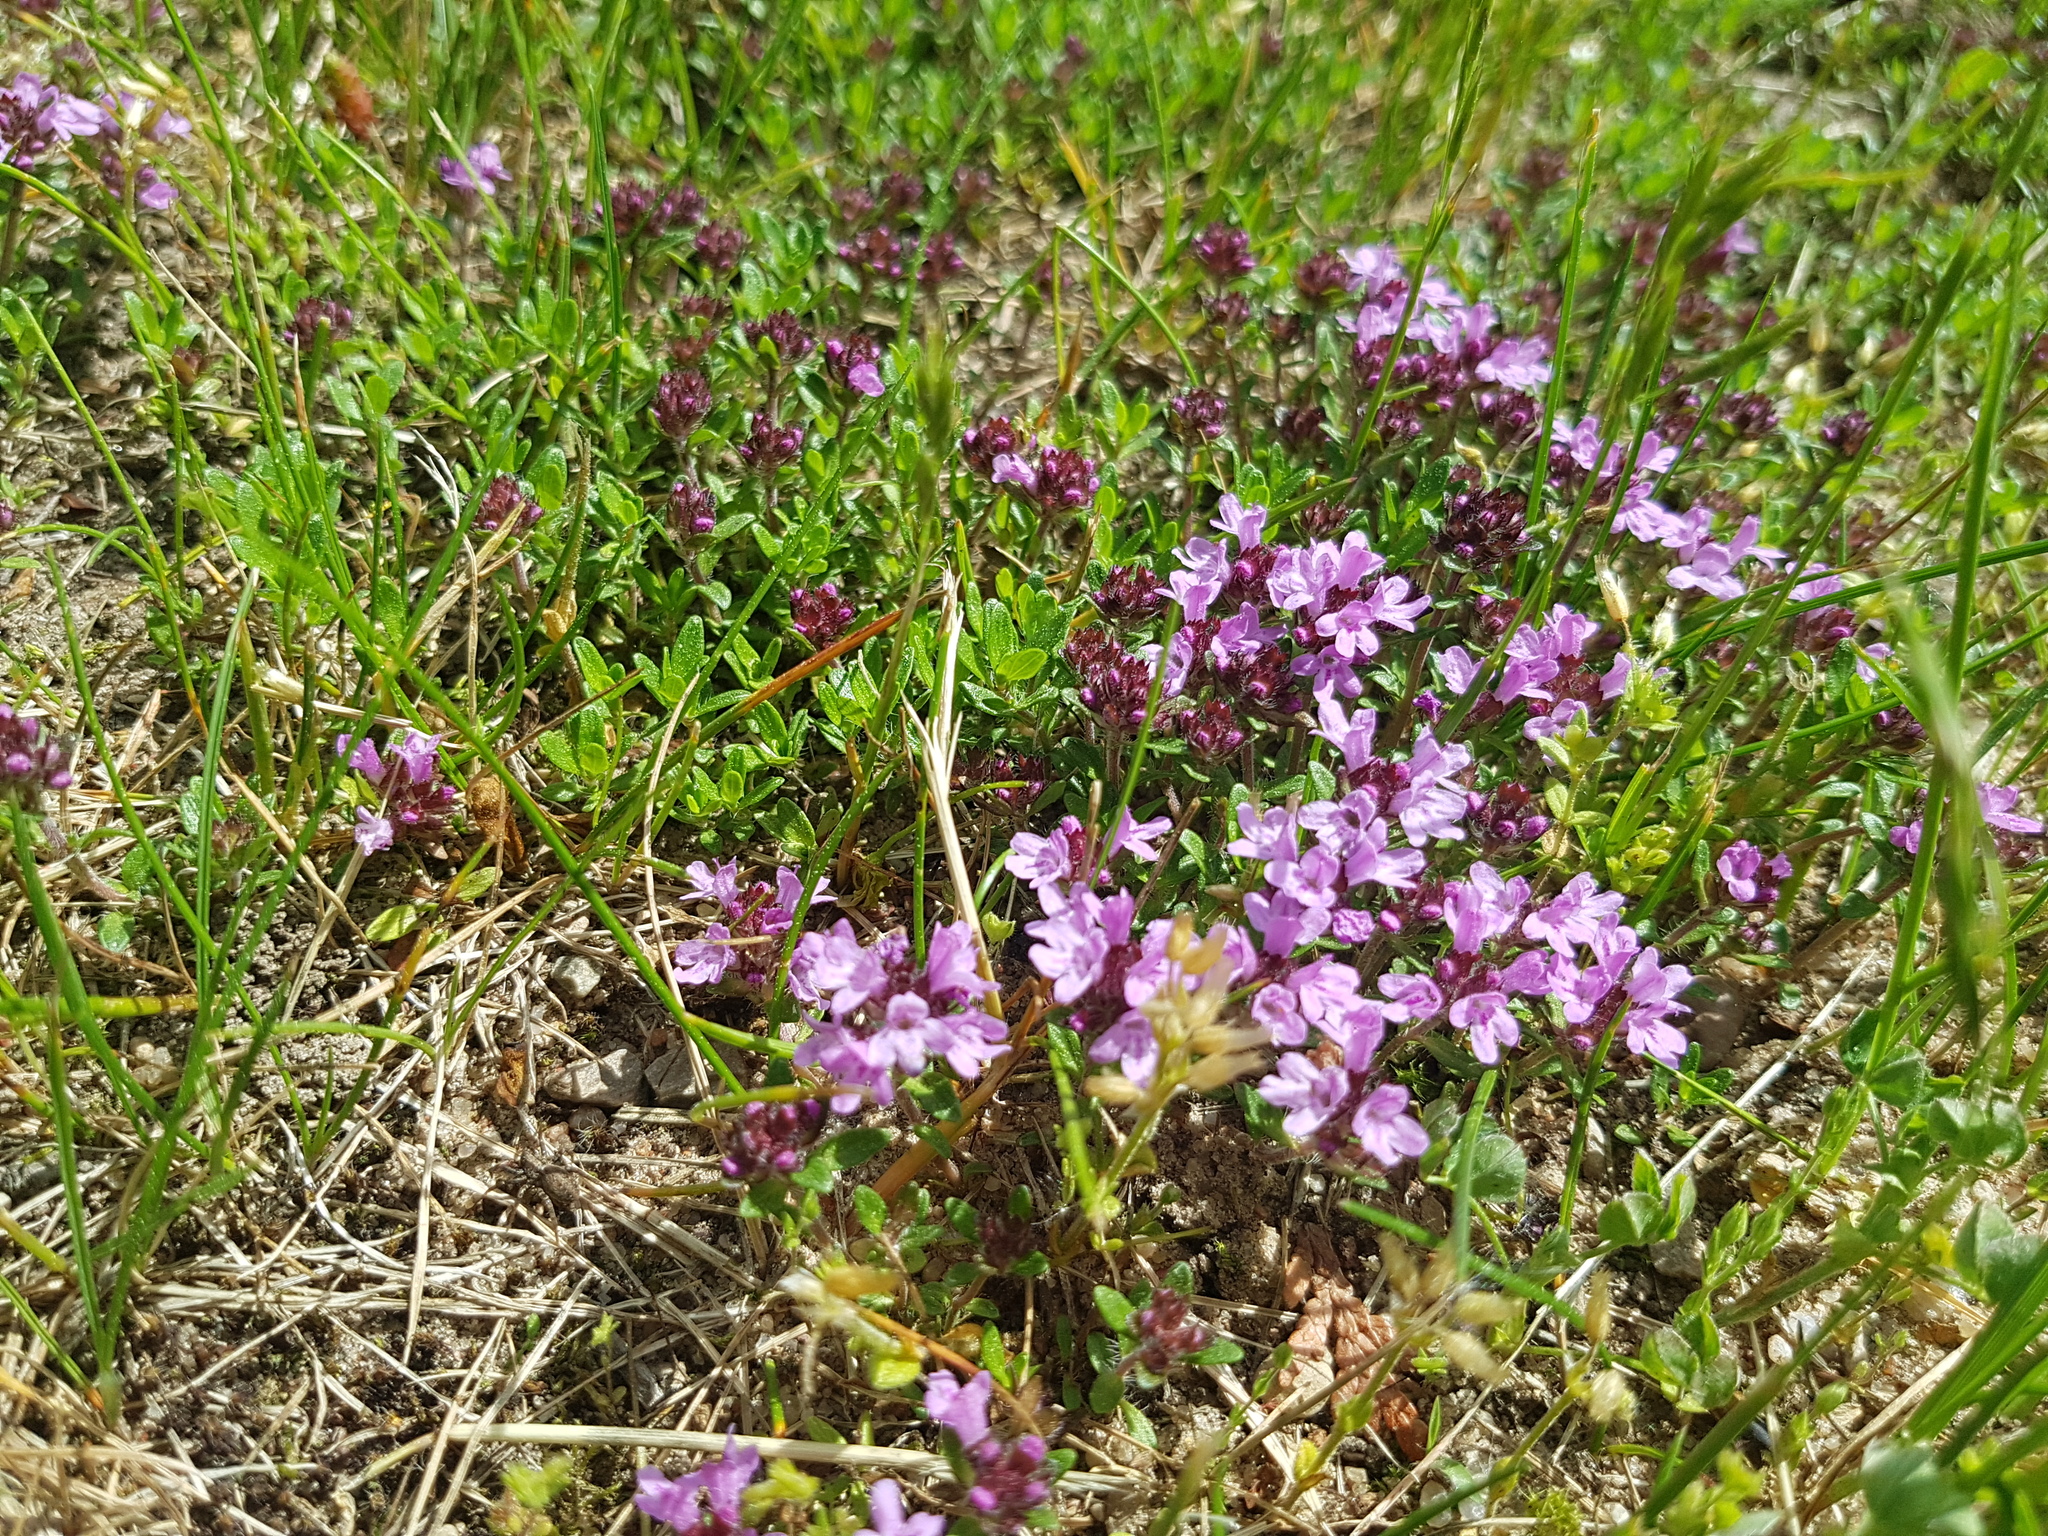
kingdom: Plantae
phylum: Tracheophyta
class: Magnoliopsida
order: Lamiales
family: Lamiaceae
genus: Thymus
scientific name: Thymus serpyllum
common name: Breckland thyme
